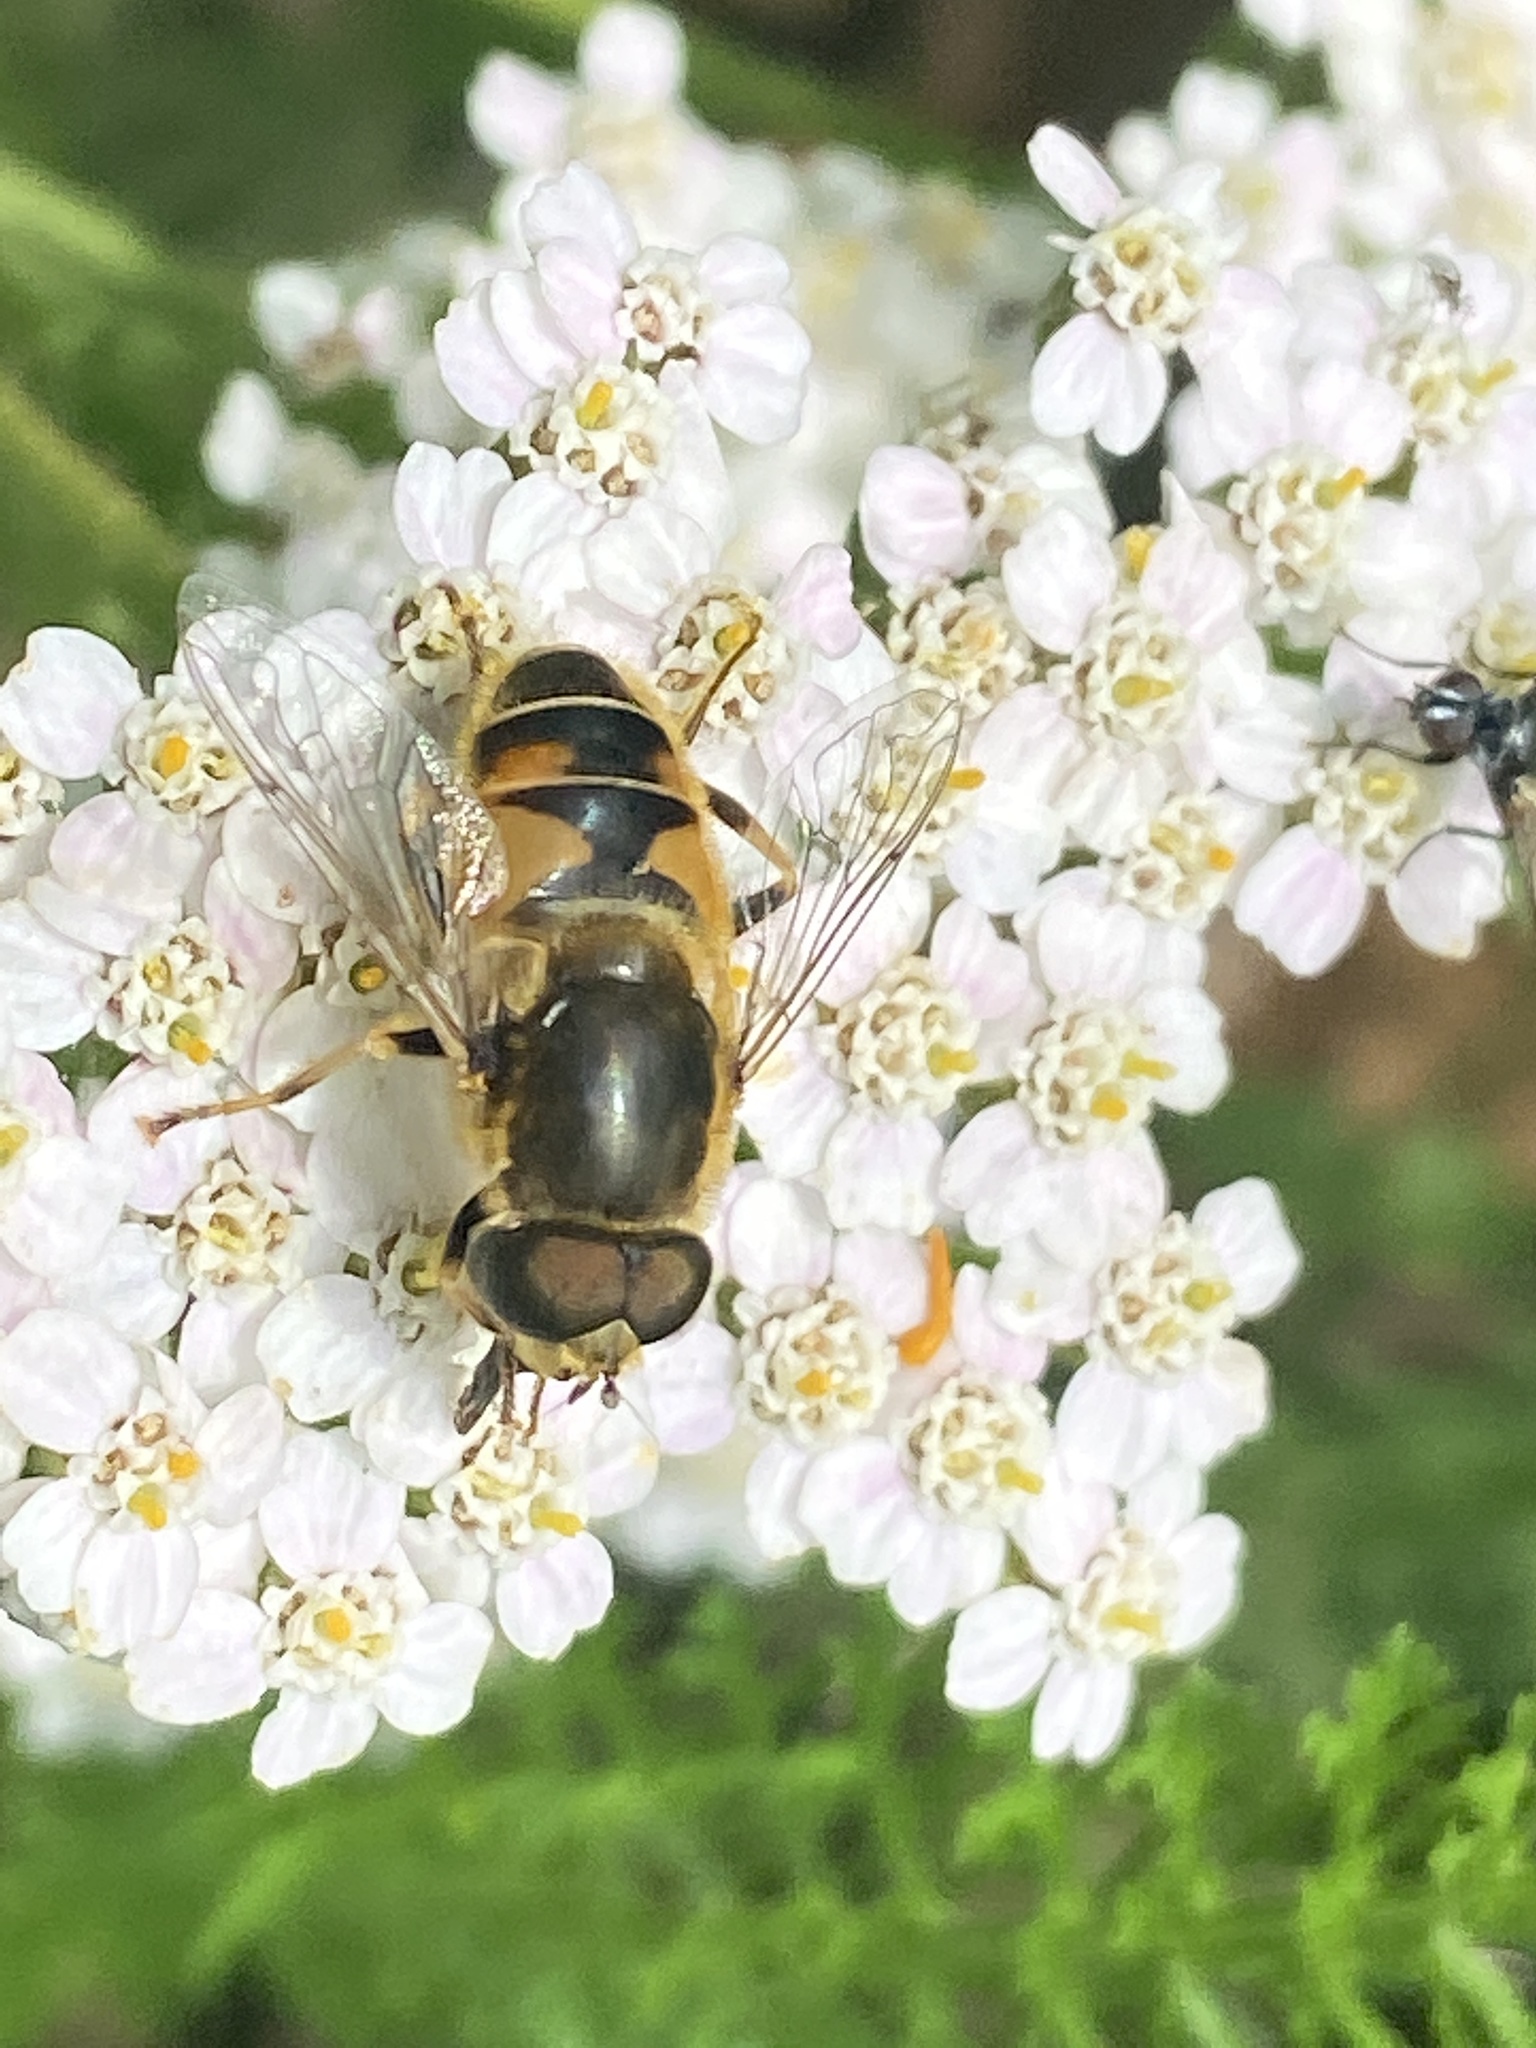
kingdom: Animalia
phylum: Arthropoda
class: Insecta
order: Diptera
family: Syrphidae
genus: Eristalis
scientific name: Eristalis nemorum
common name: Orange-spined drone fly
